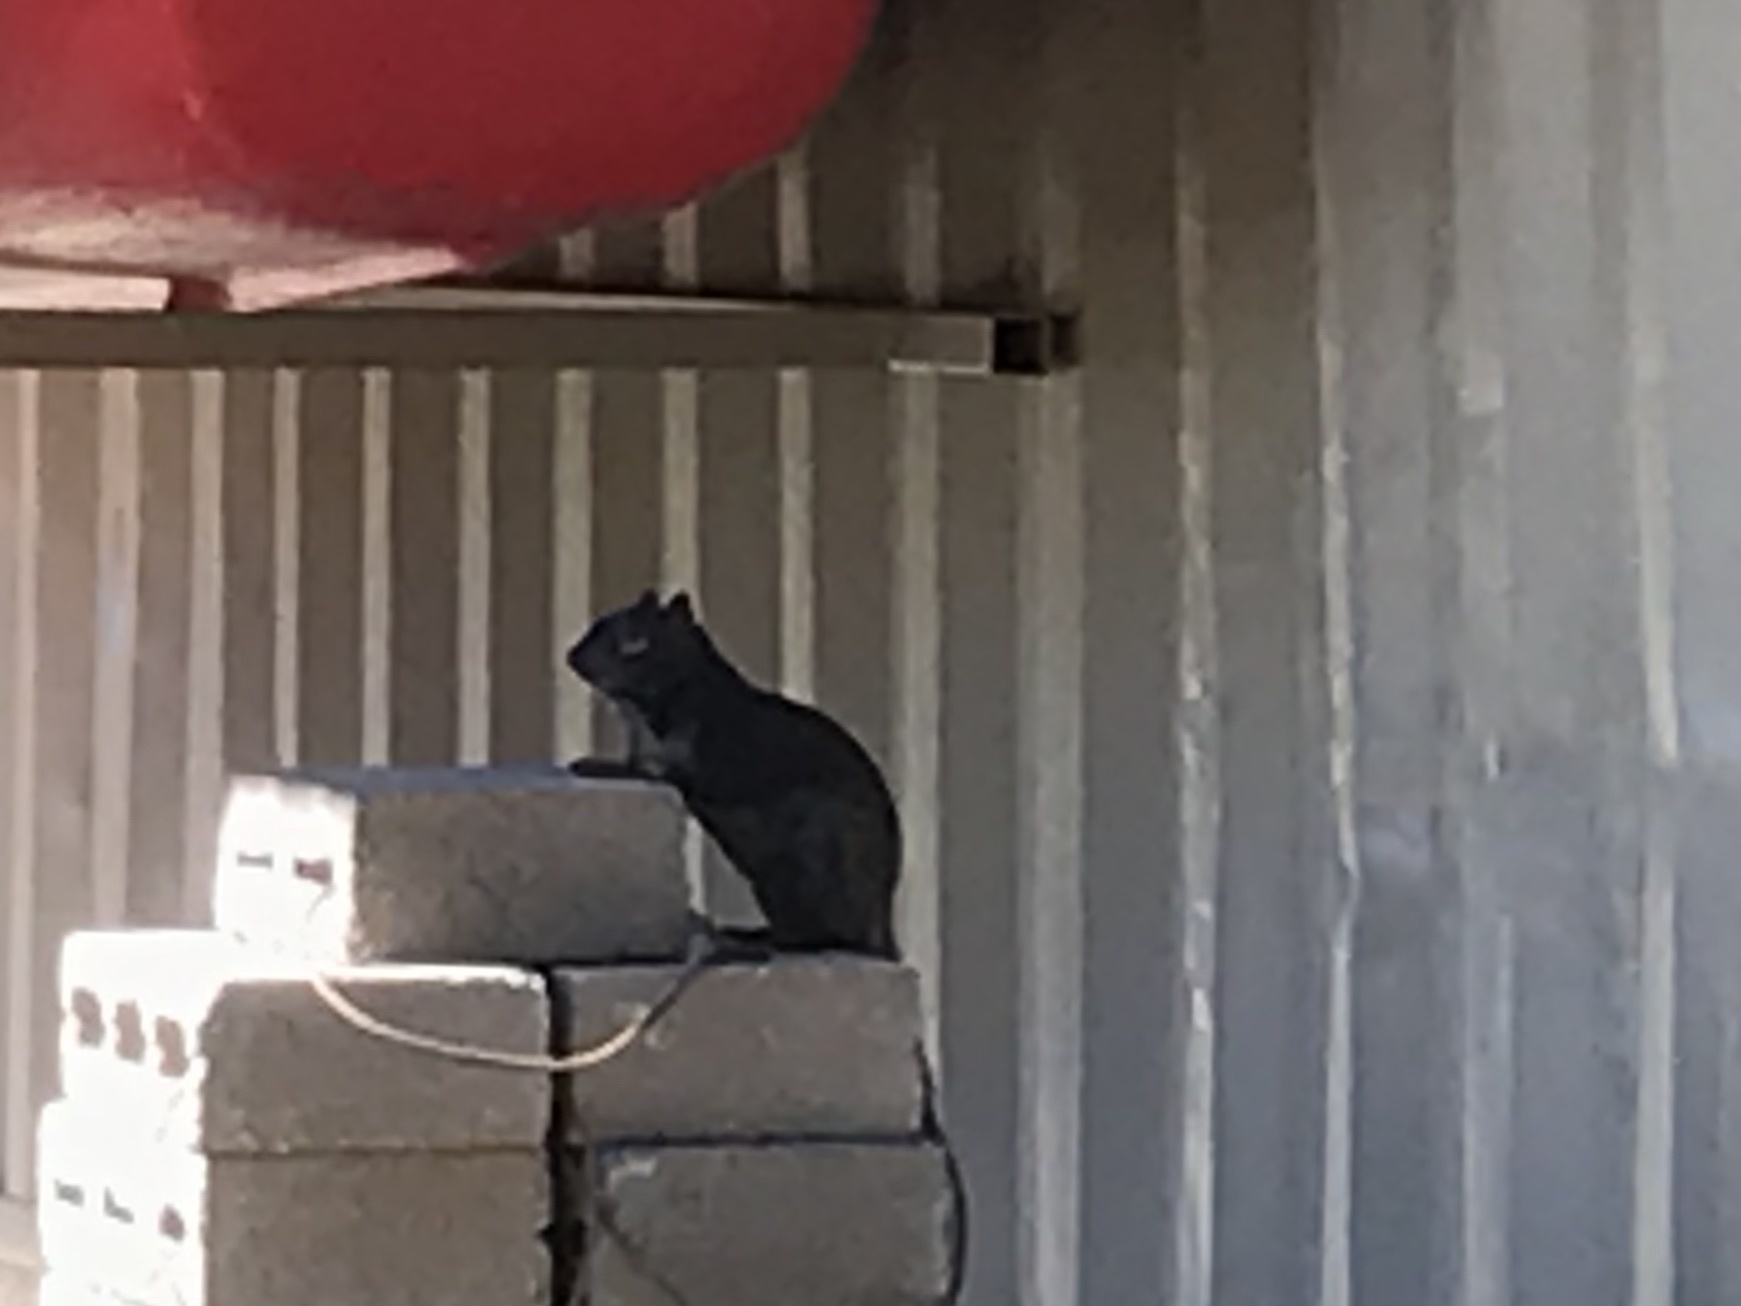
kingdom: Animalia
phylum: Chordata
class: Mammalia
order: Rodentia
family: Sciuridae
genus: Otospermophilus
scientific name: Otospermophilus variegatus
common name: Rock squirrel
